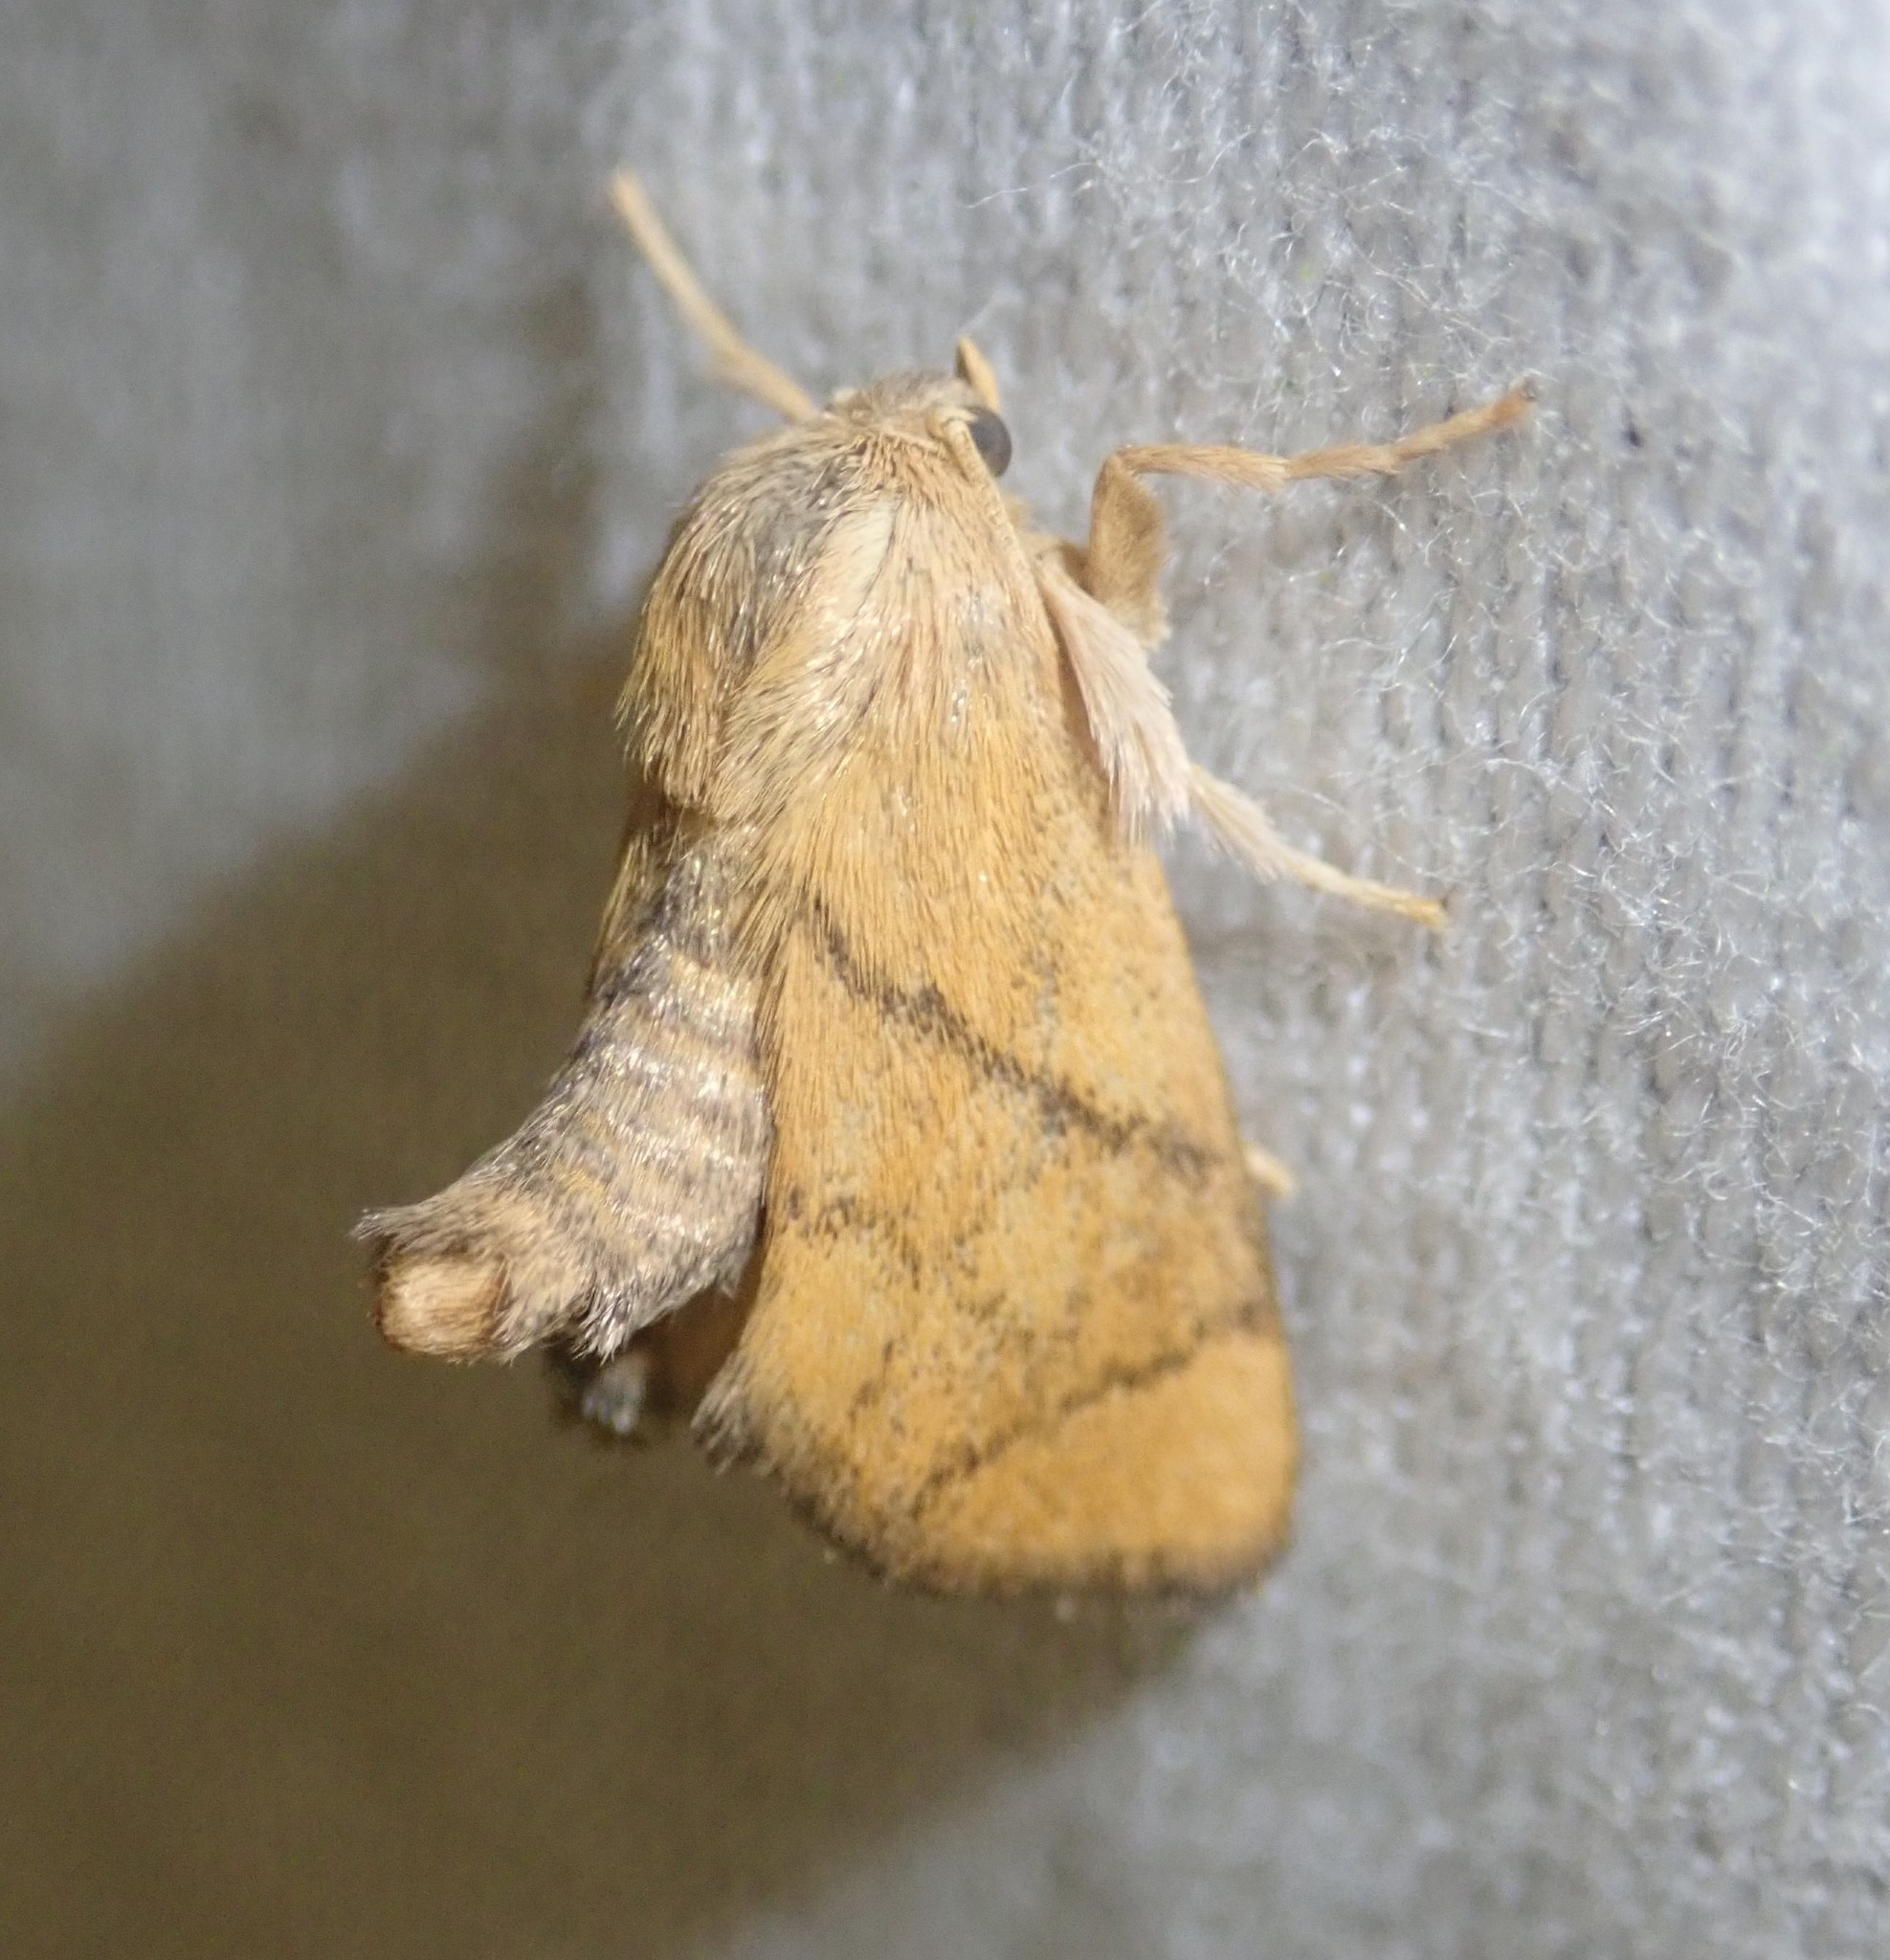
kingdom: Animalia
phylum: Arthropoda
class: Insecta
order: Lepidoptera
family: Limacodidae
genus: Apoda
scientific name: Apoda limacodes
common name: Festoon
